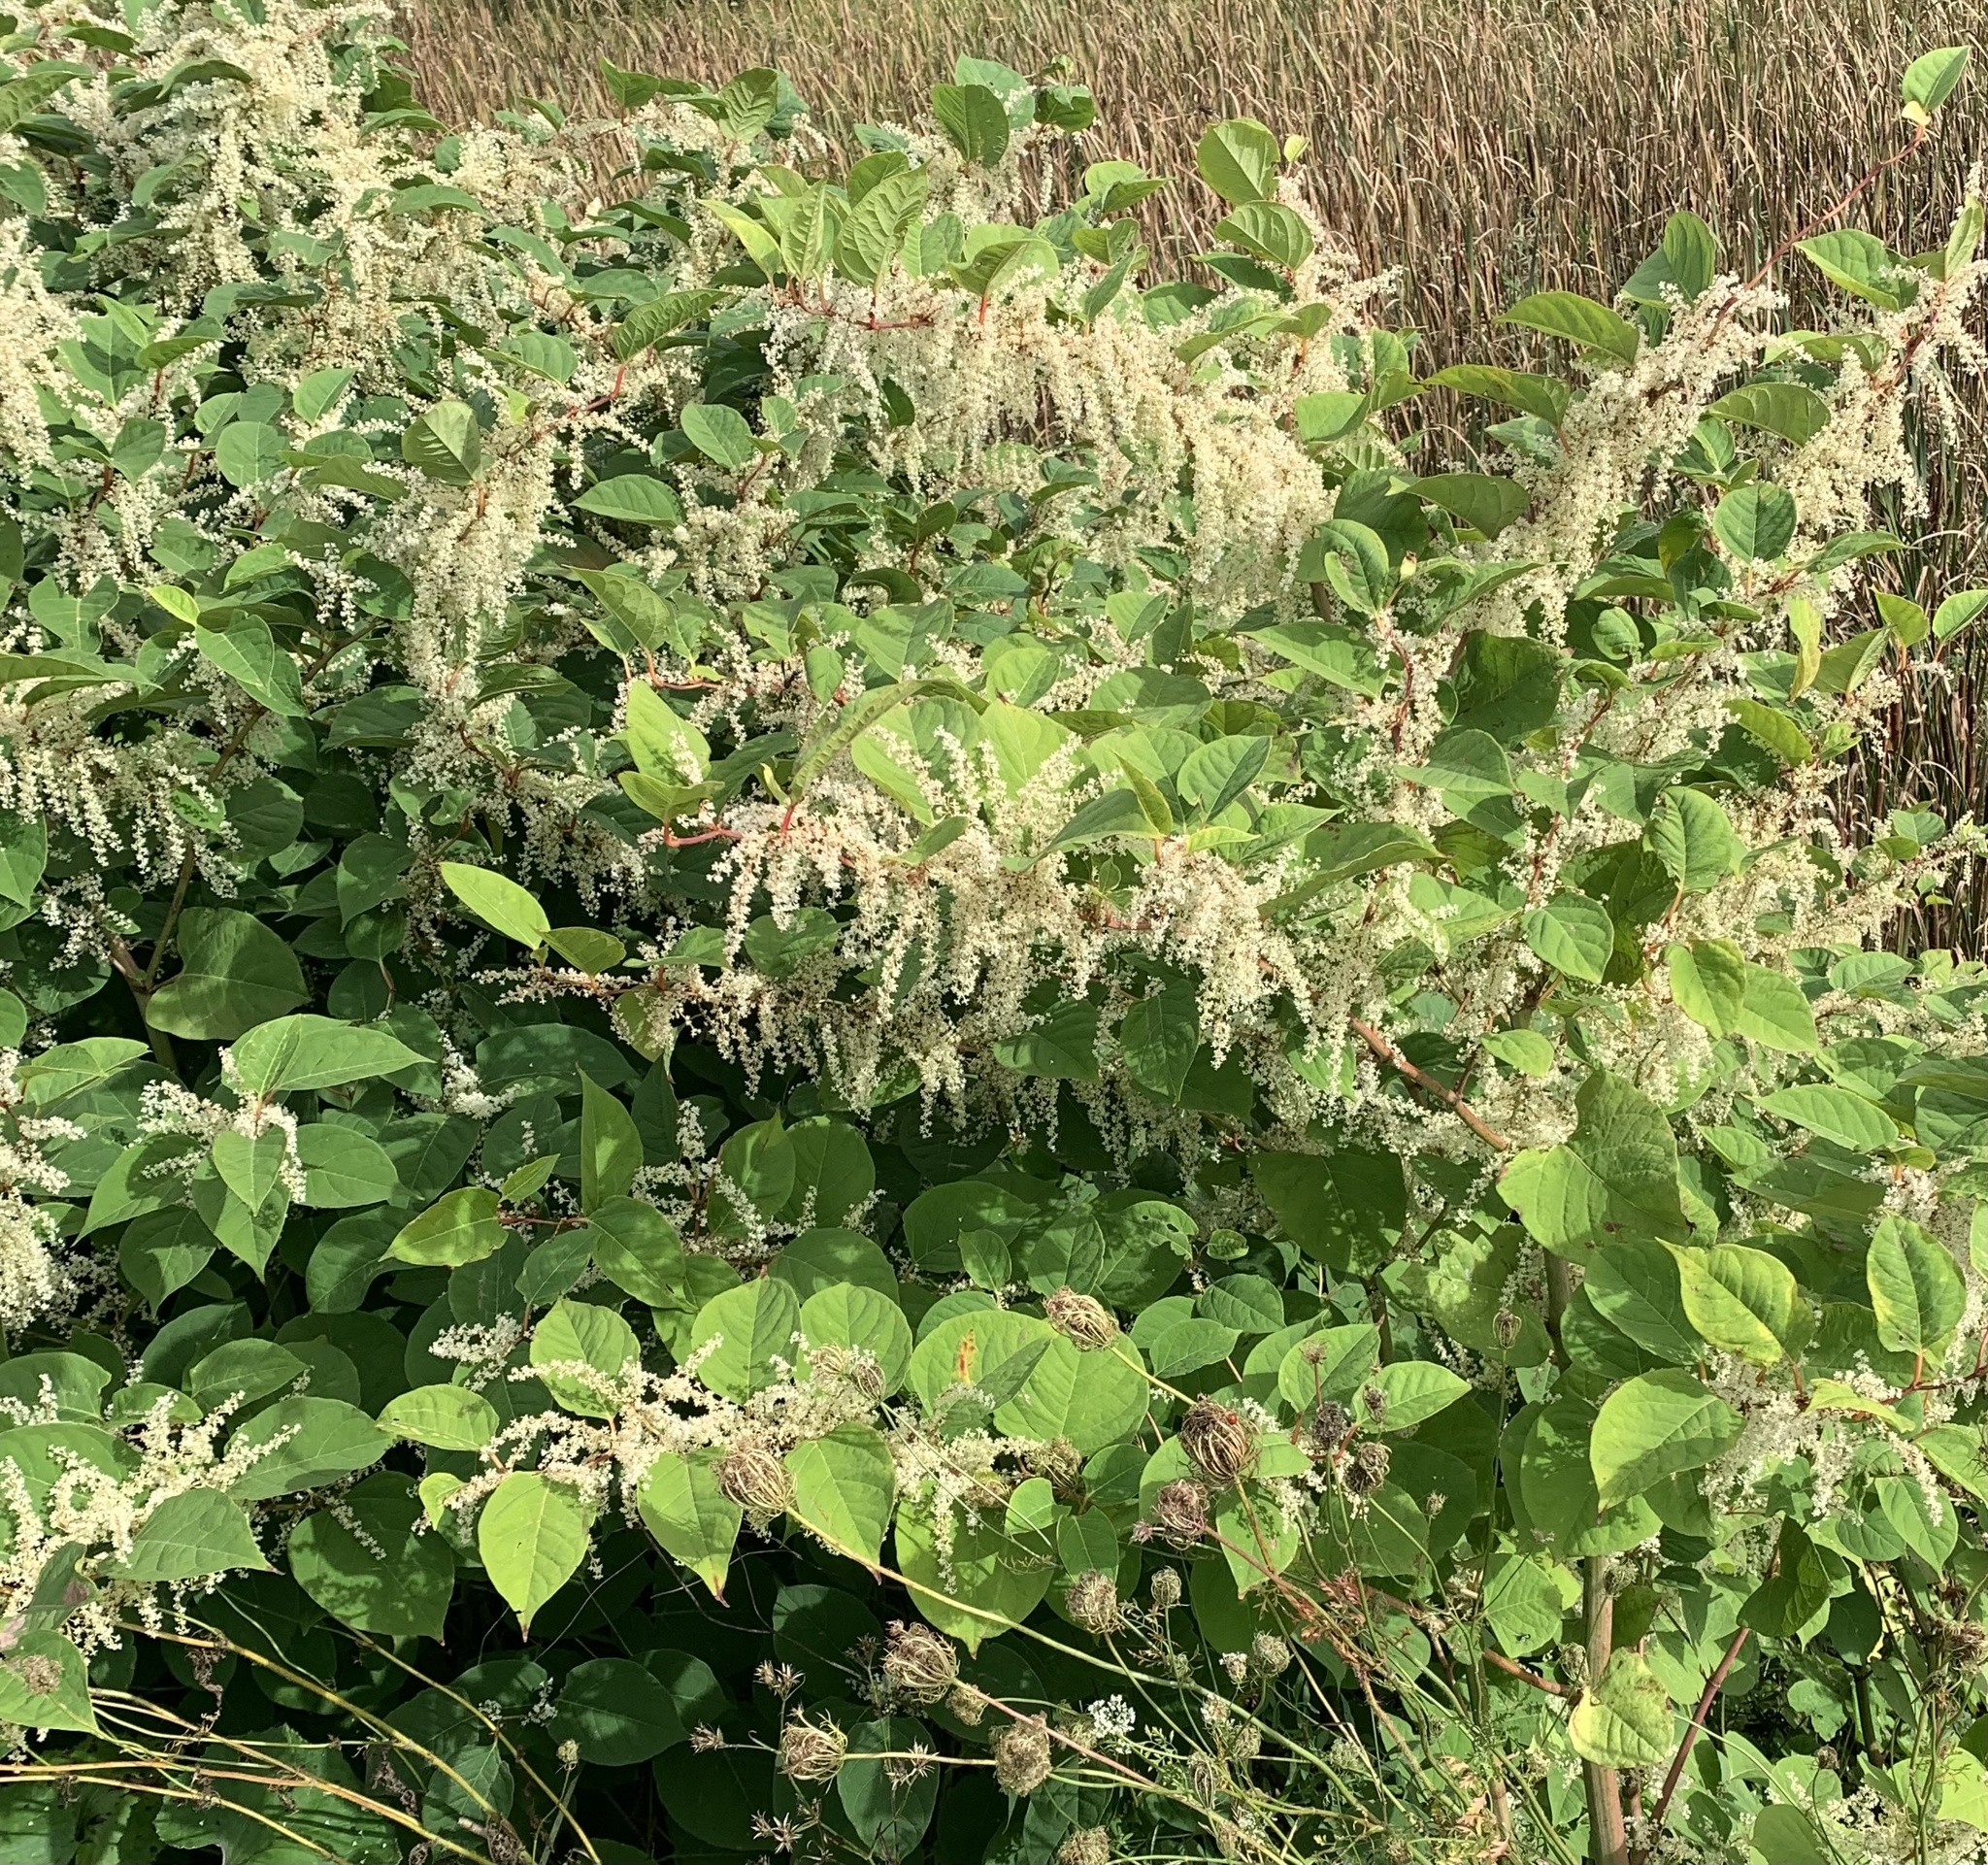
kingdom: Plantae
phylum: Tracheophyta
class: Magnoliopsida
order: Caryophyllales
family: Polygonaceae
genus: Reynoutria
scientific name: Reynoutria japonica
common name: Japanese knotweed
